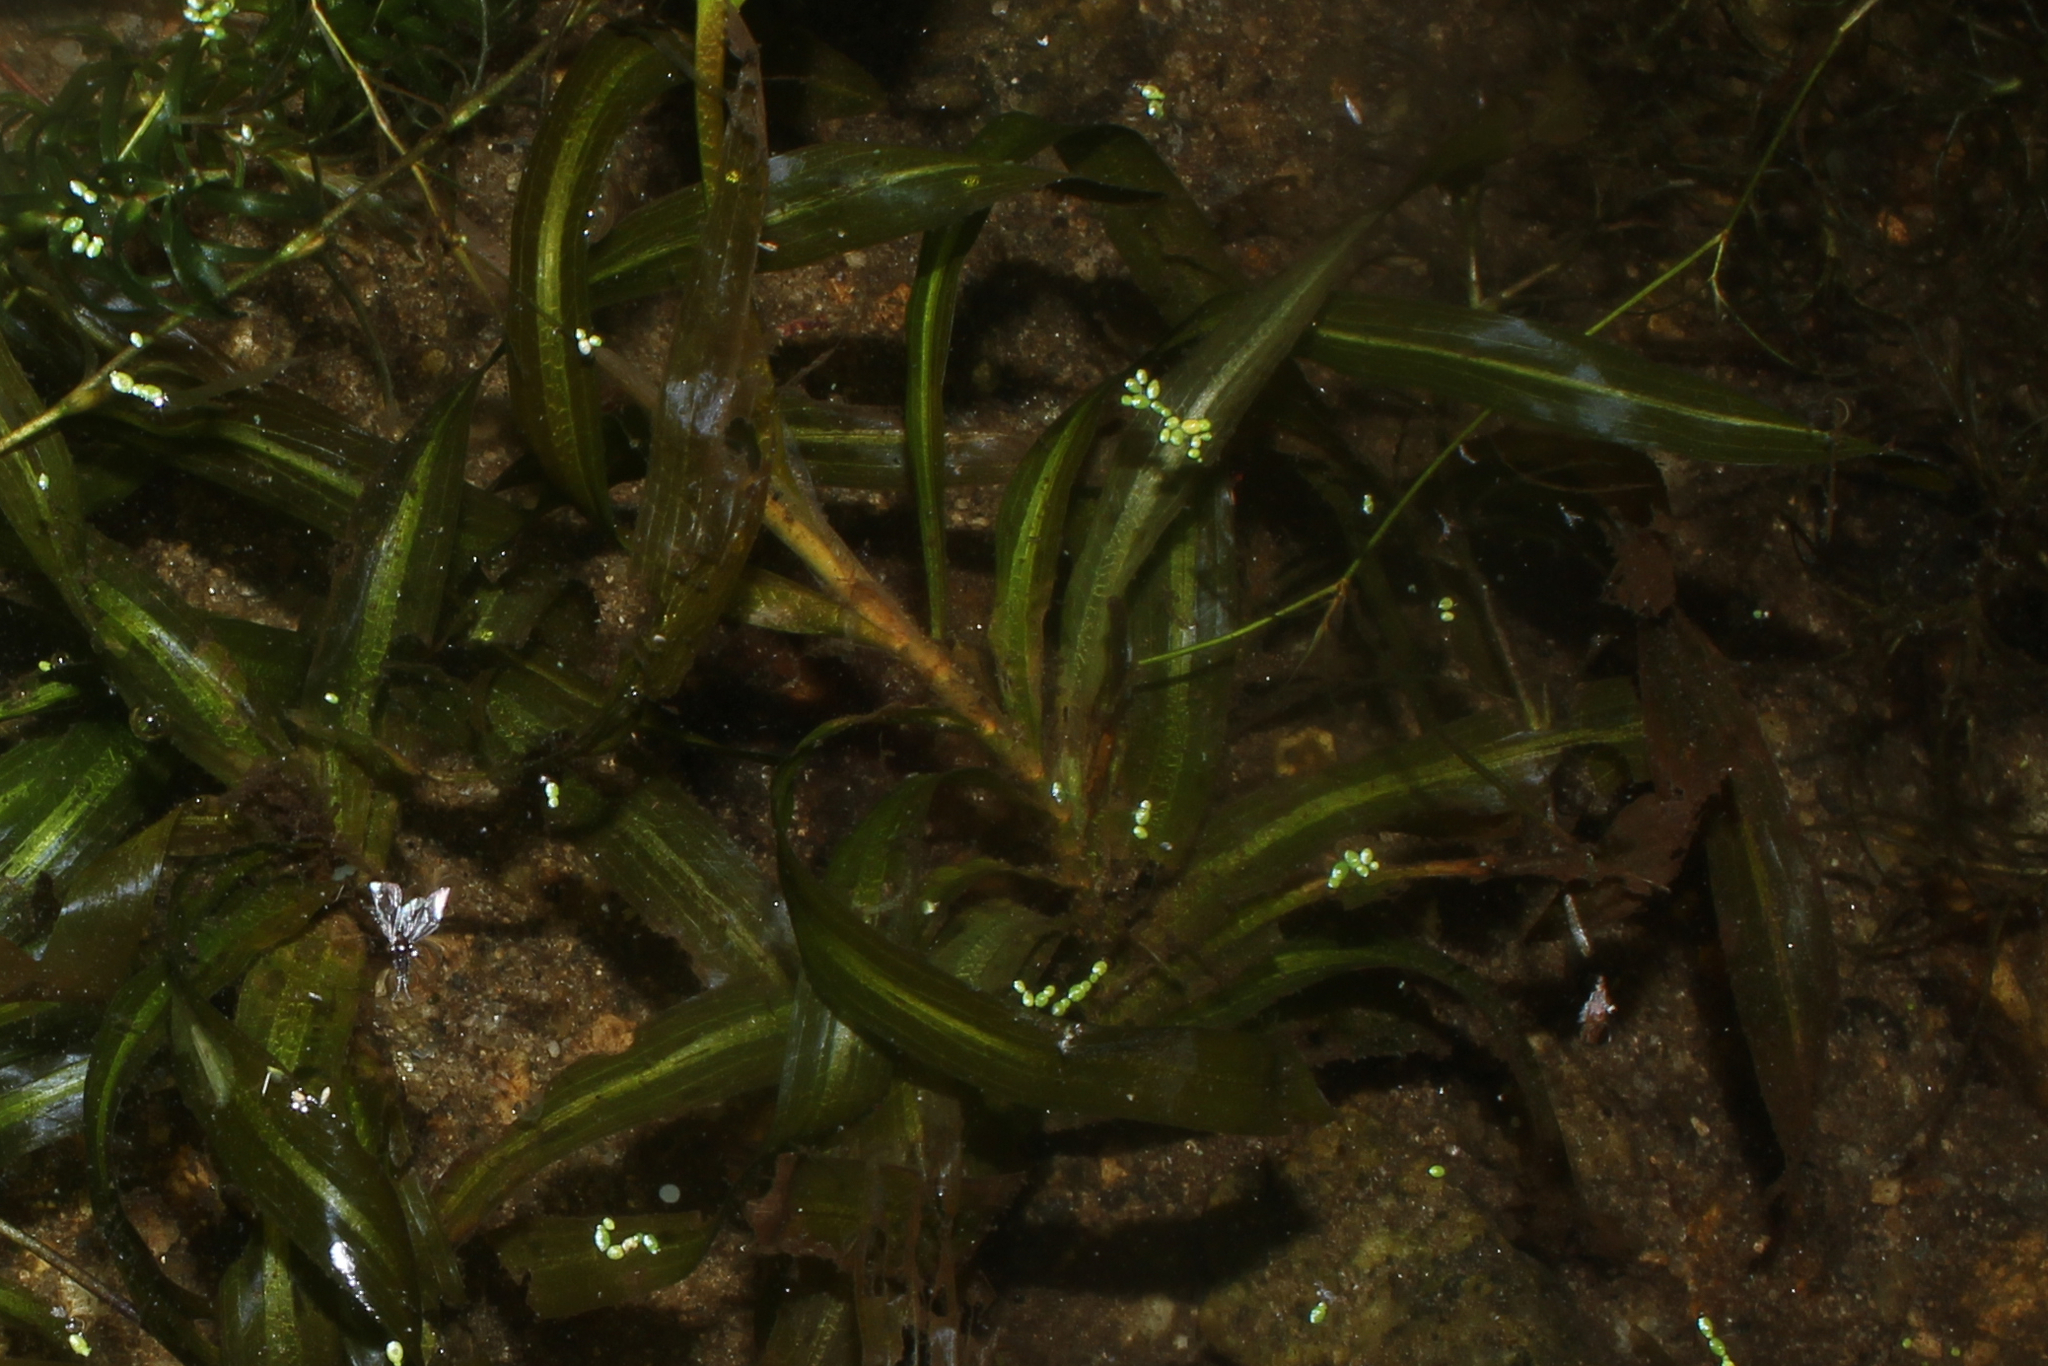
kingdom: Plantae
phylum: Tracheophyta
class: Liliopsida
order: Alismatales
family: Potamogetonaceae
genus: Potamogeton
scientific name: Potamogeton epihydrus
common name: American pondweed
